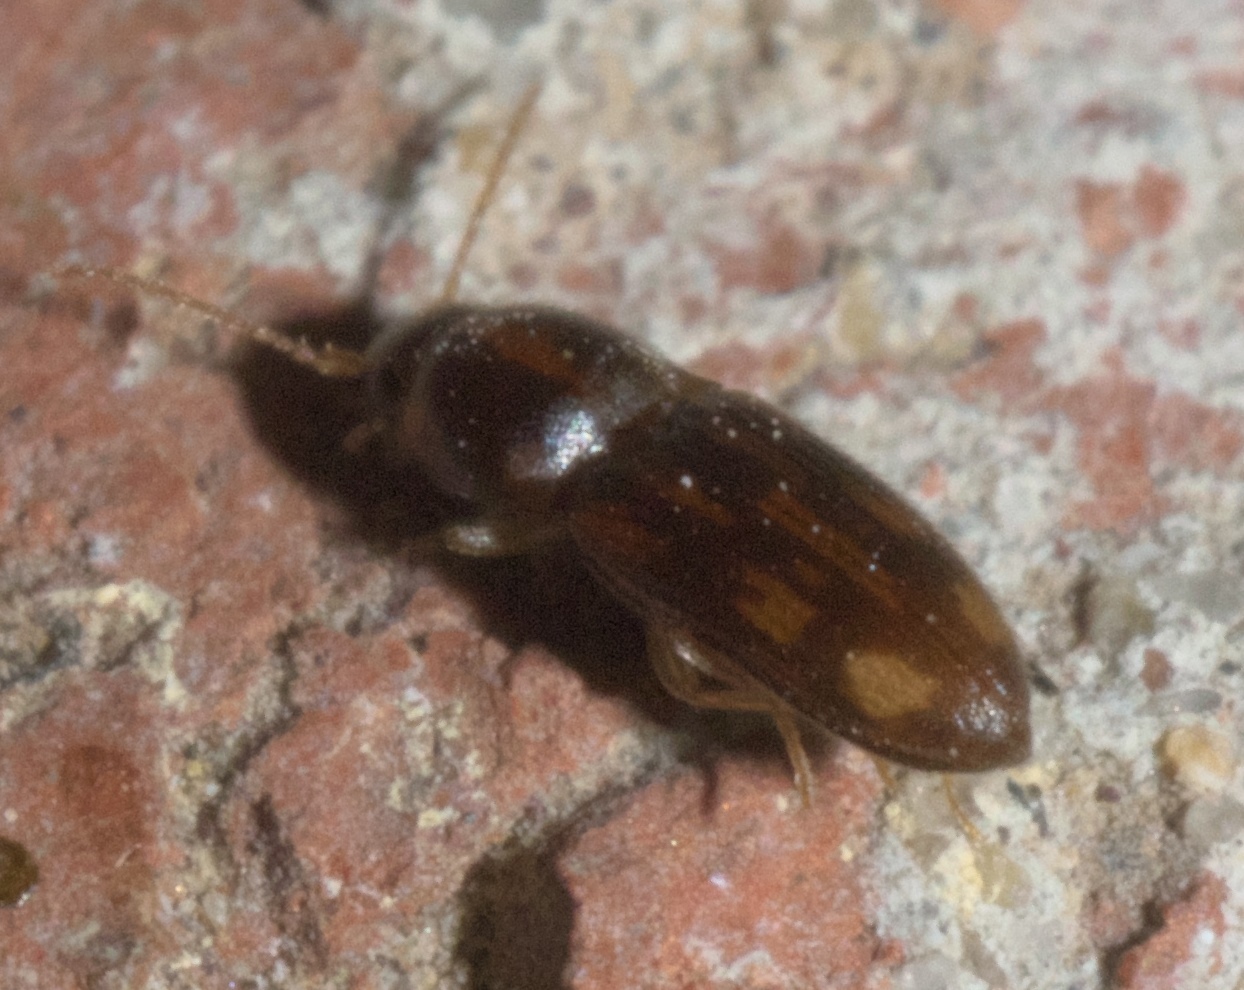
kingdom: Animalia
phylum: Arthropoda
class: Insecta
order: Coleoptera
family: Elateridae
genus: Monocrepidius
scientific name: Monocrepidius bellus
